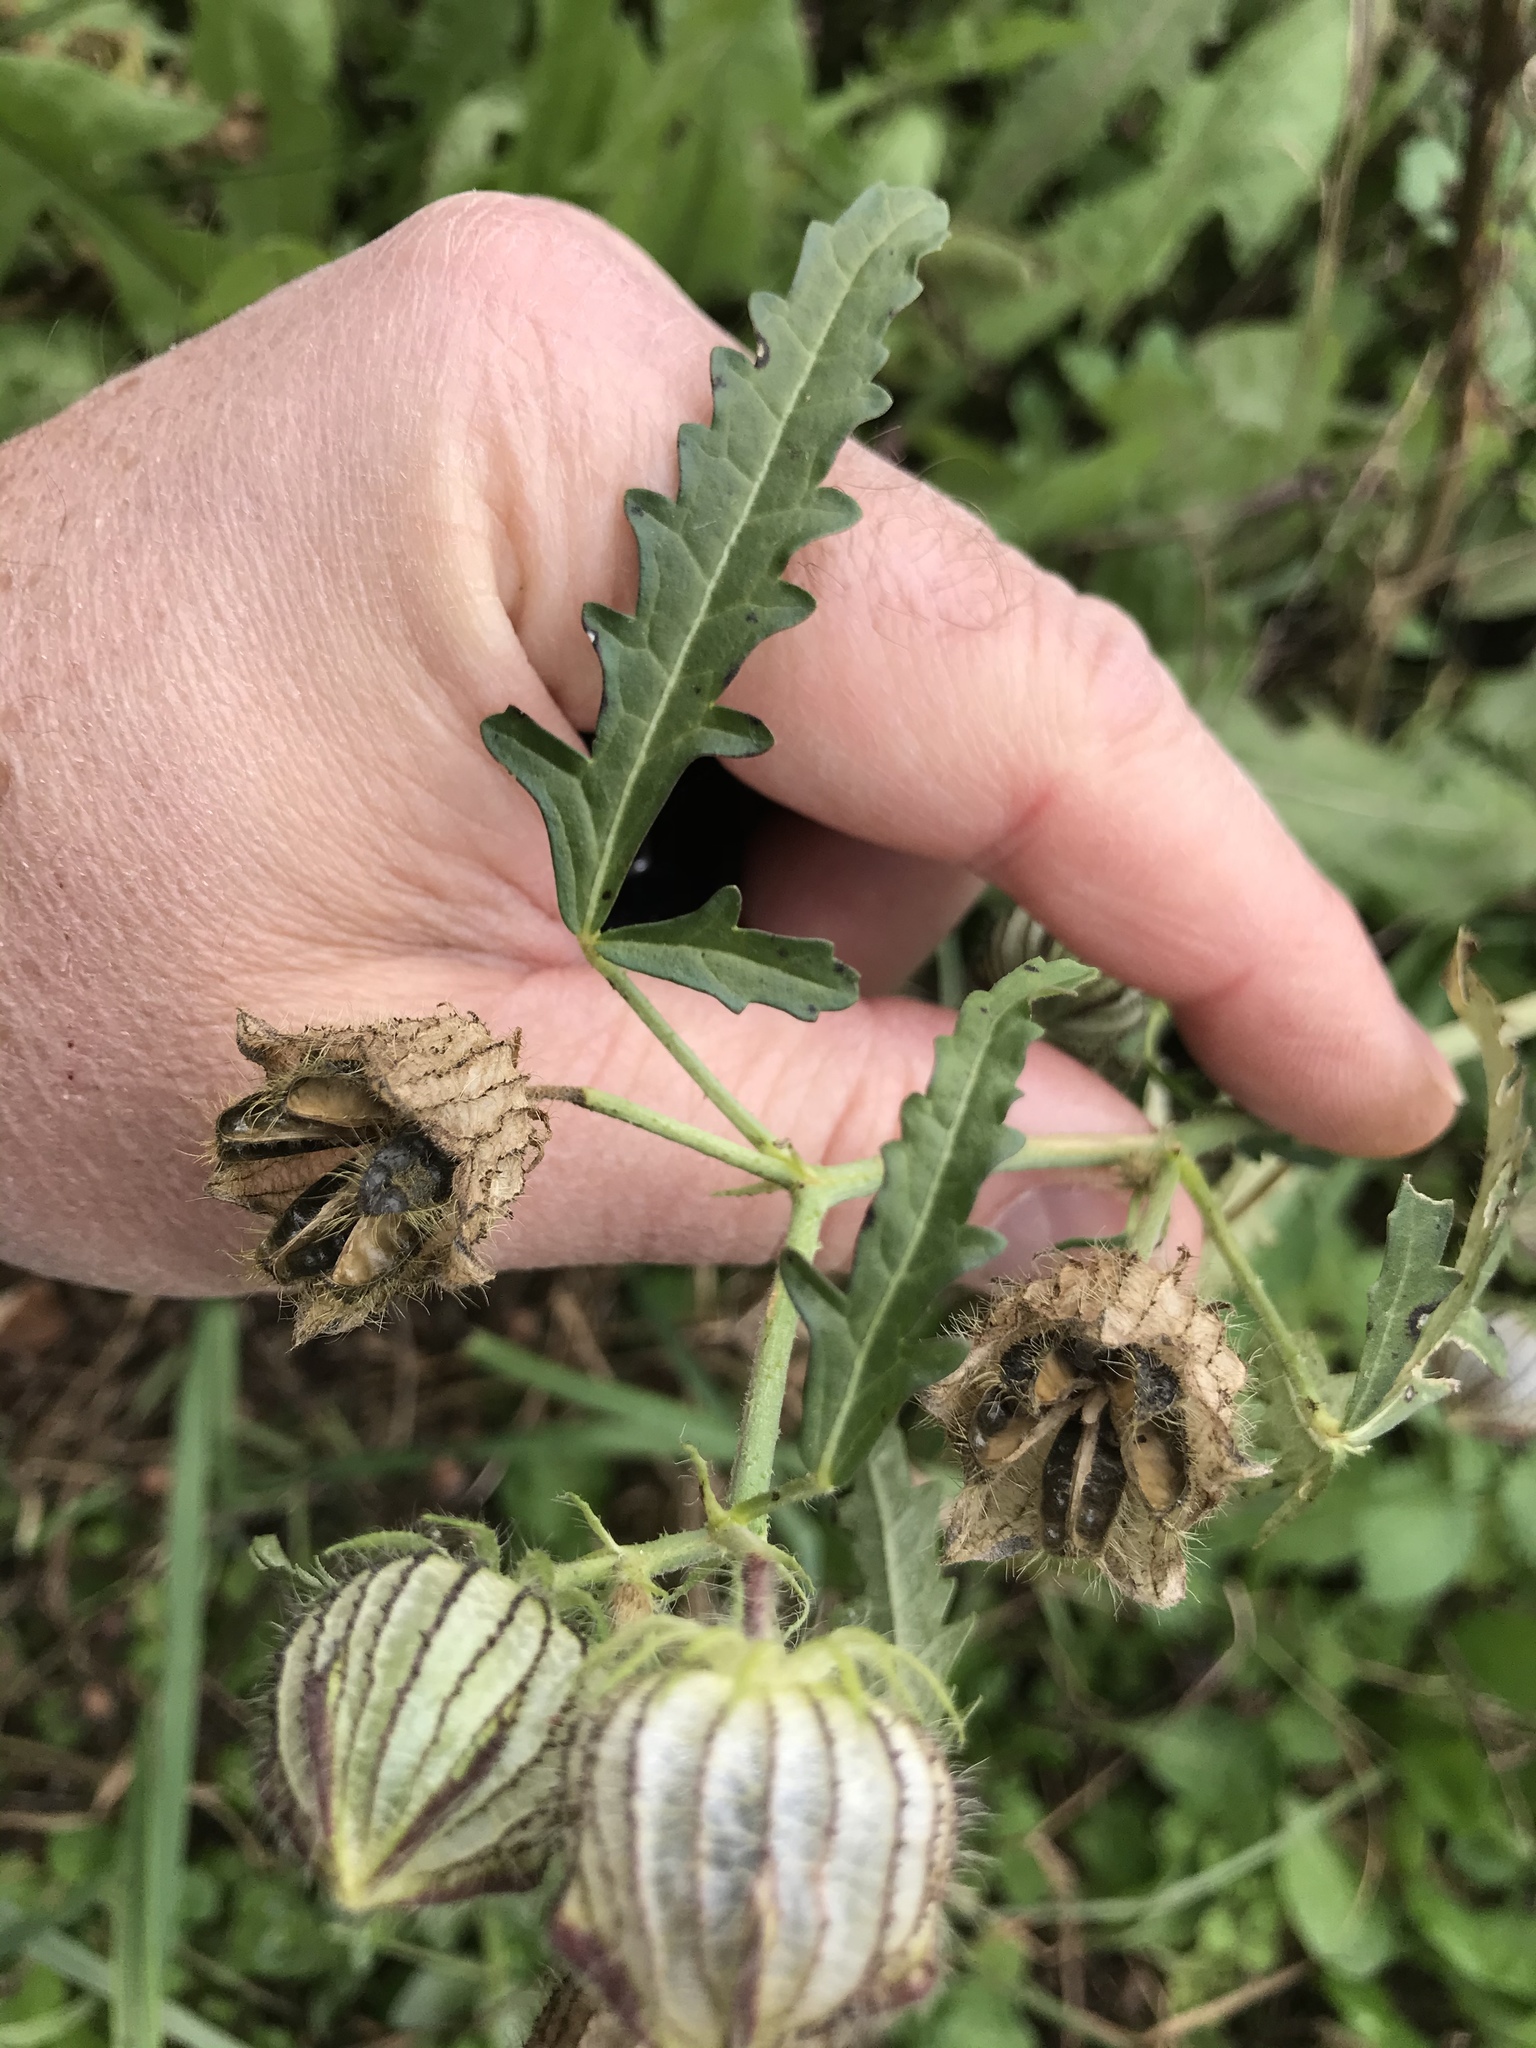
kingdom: Plantae
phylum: Tracheophyta
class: Magnoliopsida
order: Malvales
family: Malvaceae
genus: Hibiscus
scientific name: Hibiscus trionum
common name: Bladder ketmia
